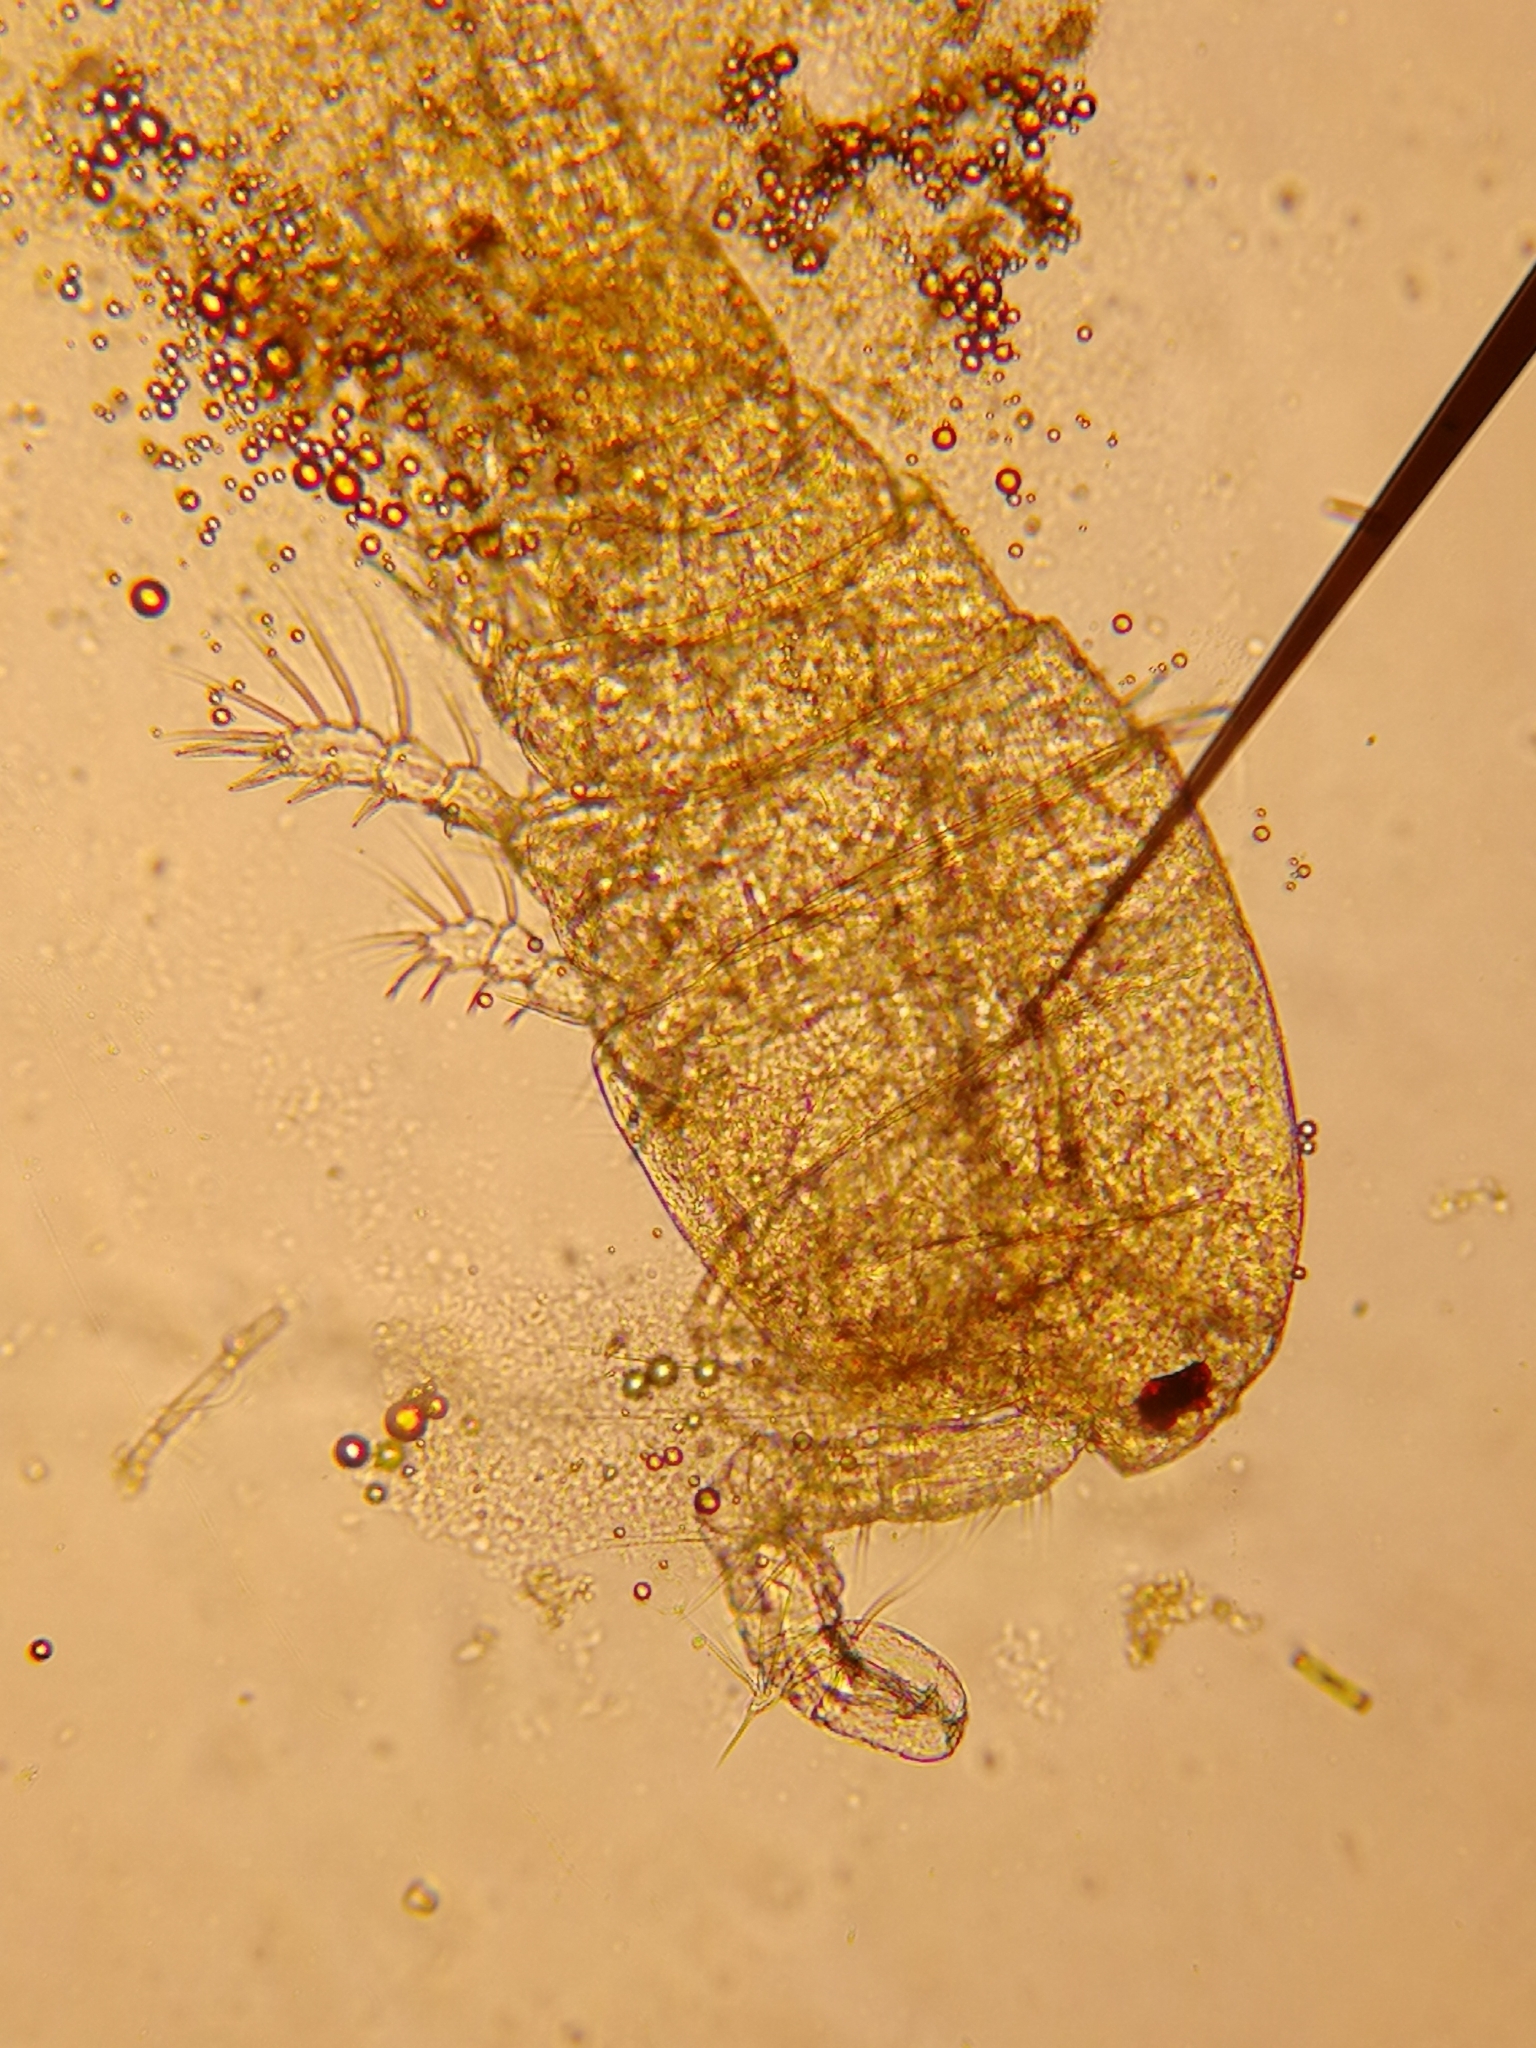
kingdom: Animalia
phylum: Arthropoda
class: Copepoda
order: Cyclopoida
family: Cyclopidae
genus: Diacyclops
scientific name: Diacyclops bicuspidatus
